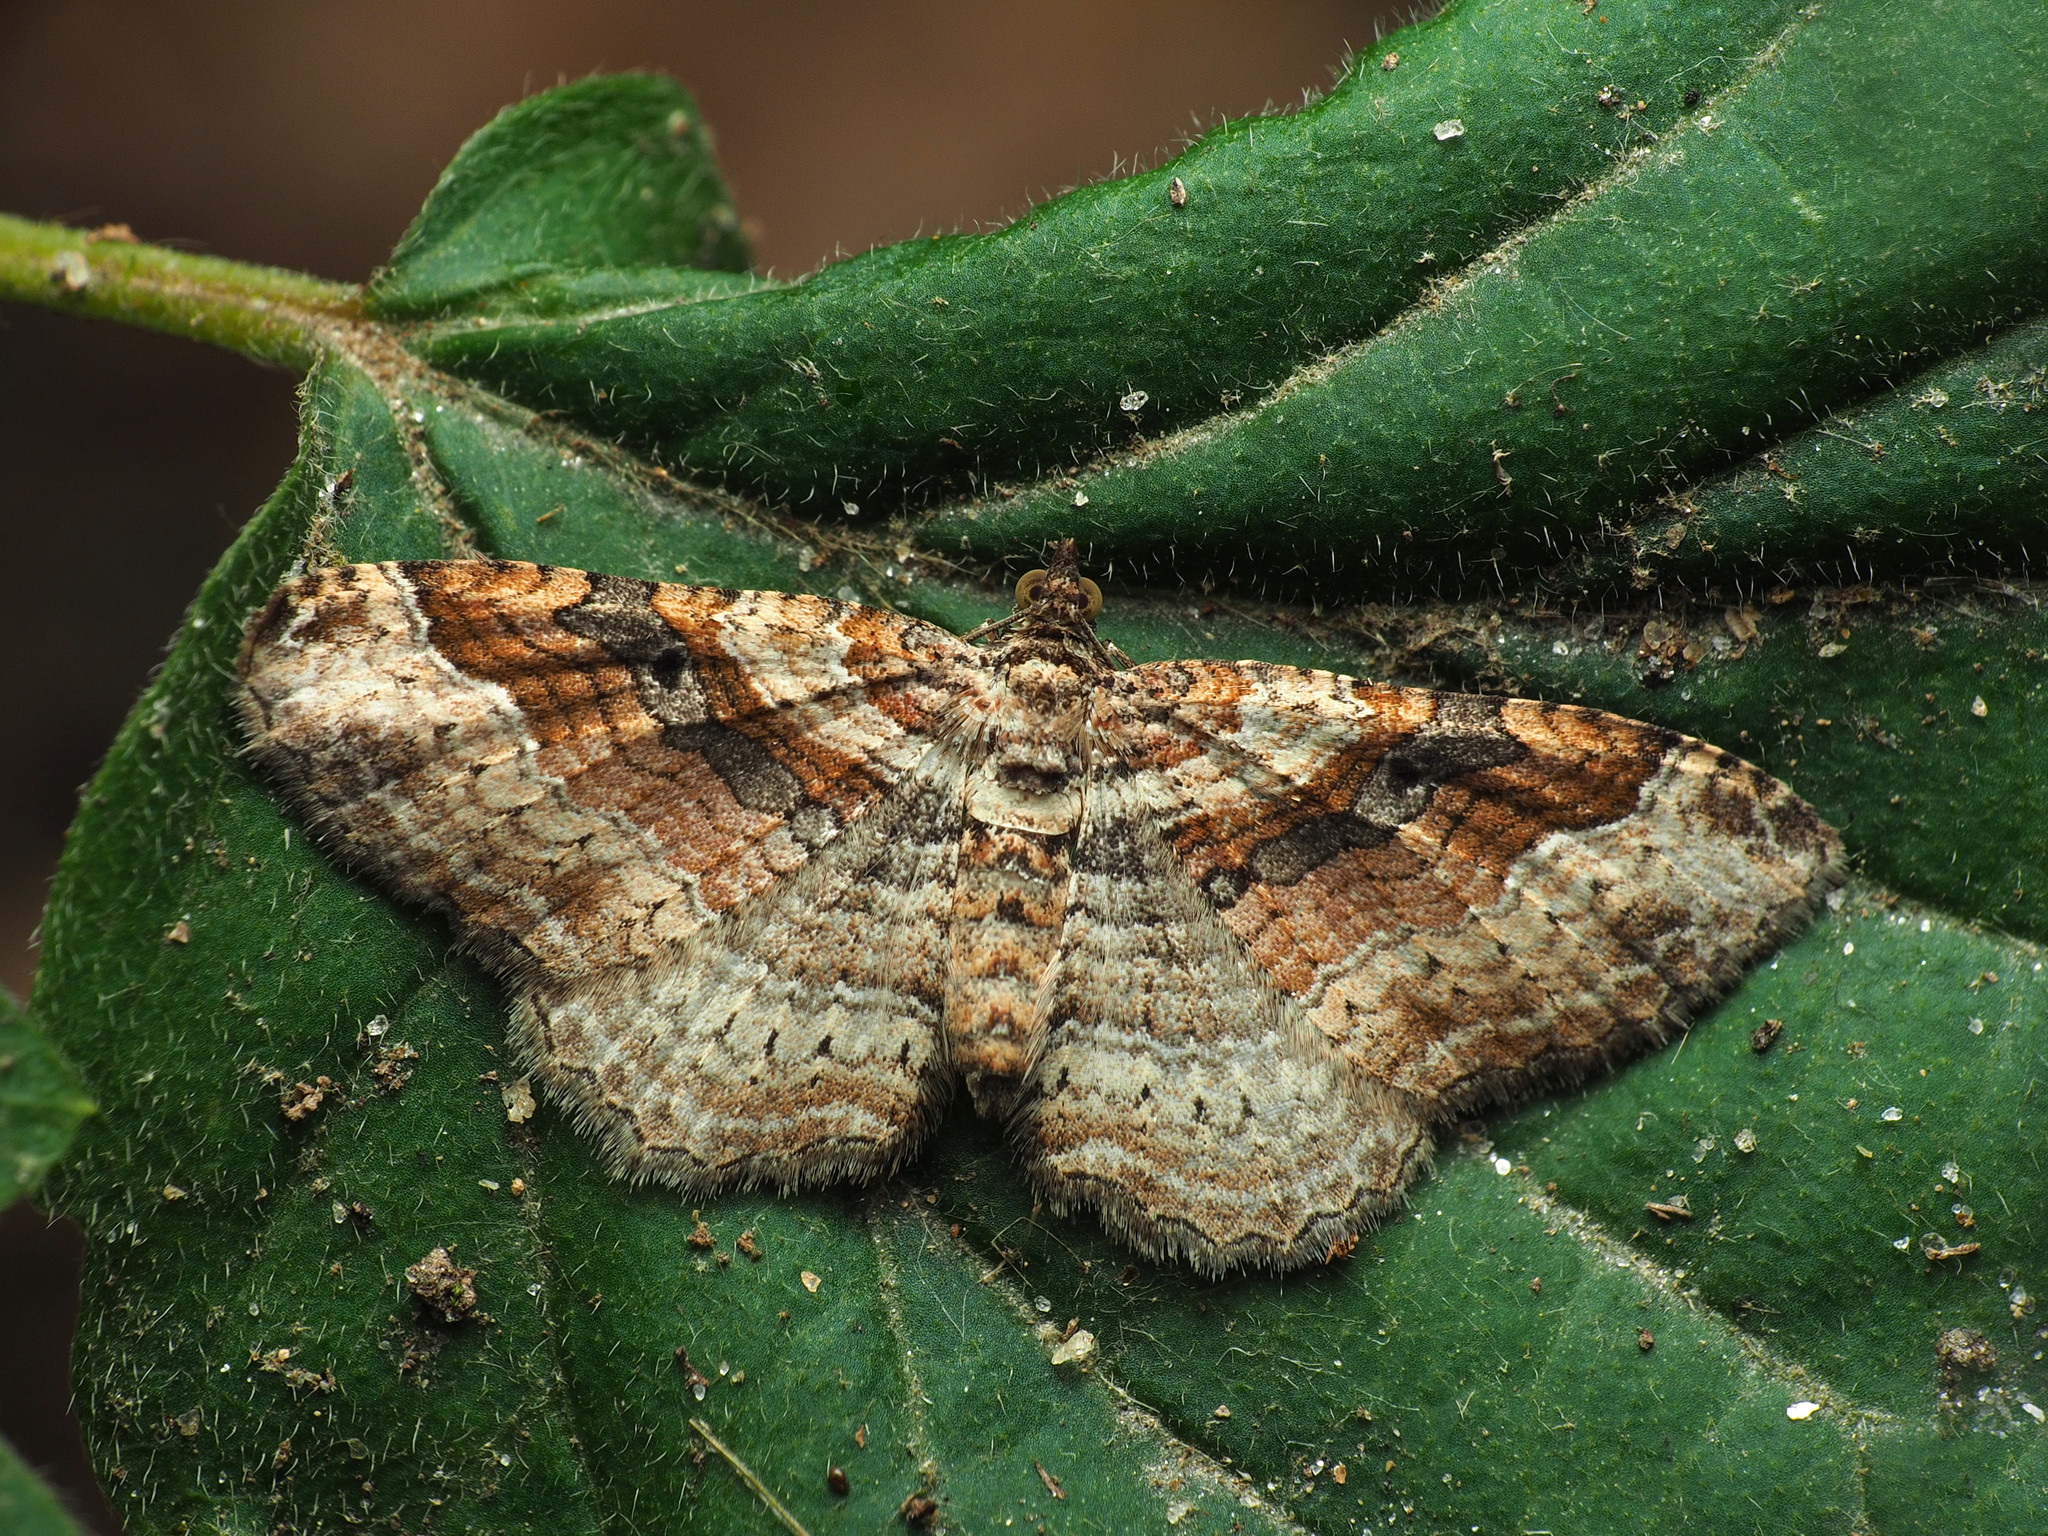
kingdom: Animalia
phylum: Arthropoda
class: Insecta
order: Lepidoptera
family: Geometridae
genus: Costaconvexa
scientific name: Costaconvexa centrostrigaria
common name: Bent-line carpet
